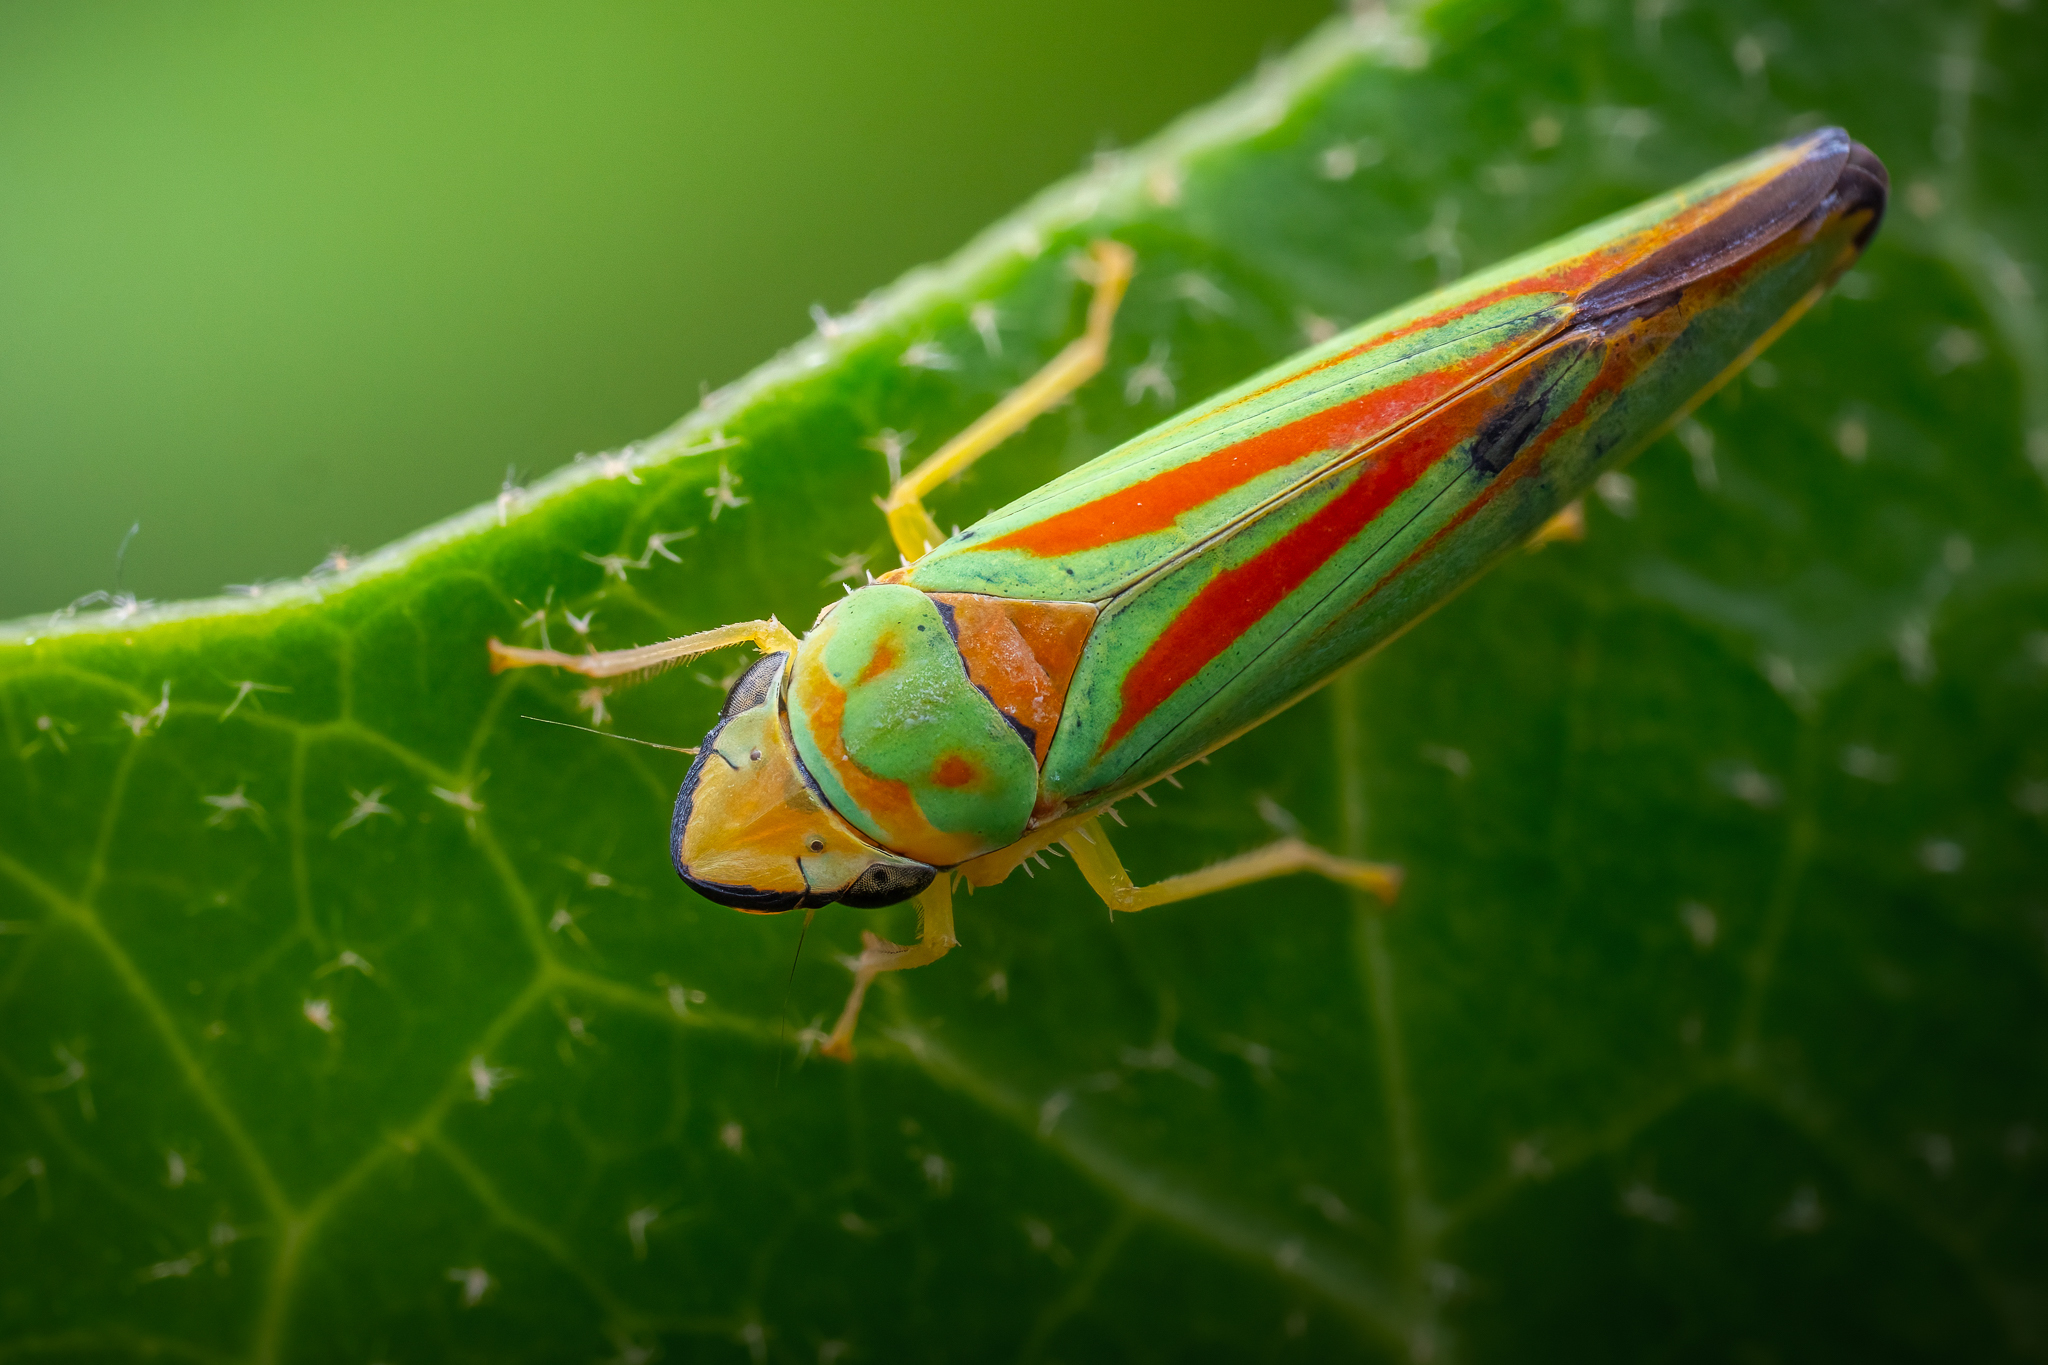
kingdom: Animalia
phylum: Arthropoda
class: Insecta
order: Hemiptera
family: Cicadellidae
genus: Graphocephala
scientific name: Graphocephala fennahi
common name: Rhododendron leafhopper
